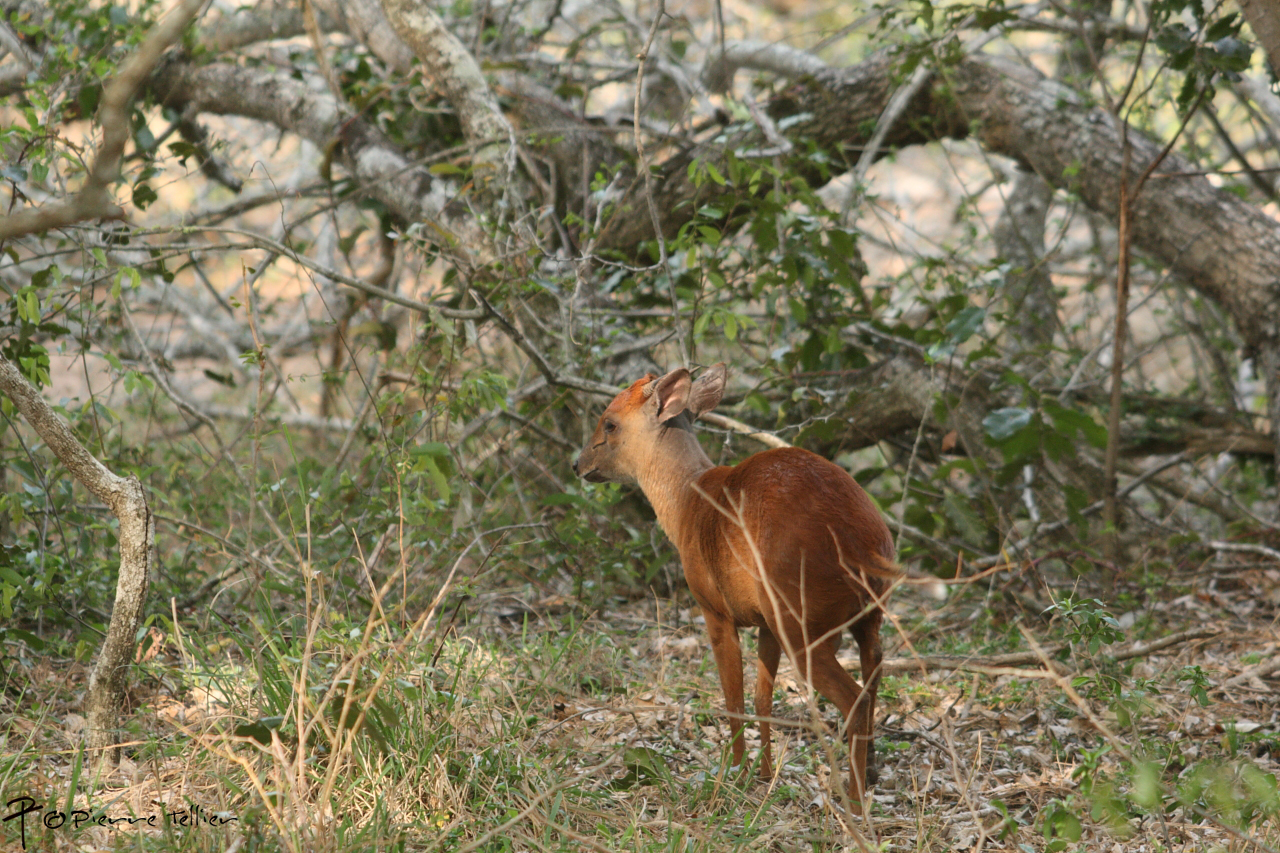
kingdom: Animalia
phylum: Chordata
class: Mammalia
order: Artiodactyla
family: Bovidae
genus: Cephalophus
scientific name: Cephalophus natalensis
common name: Red duiker
